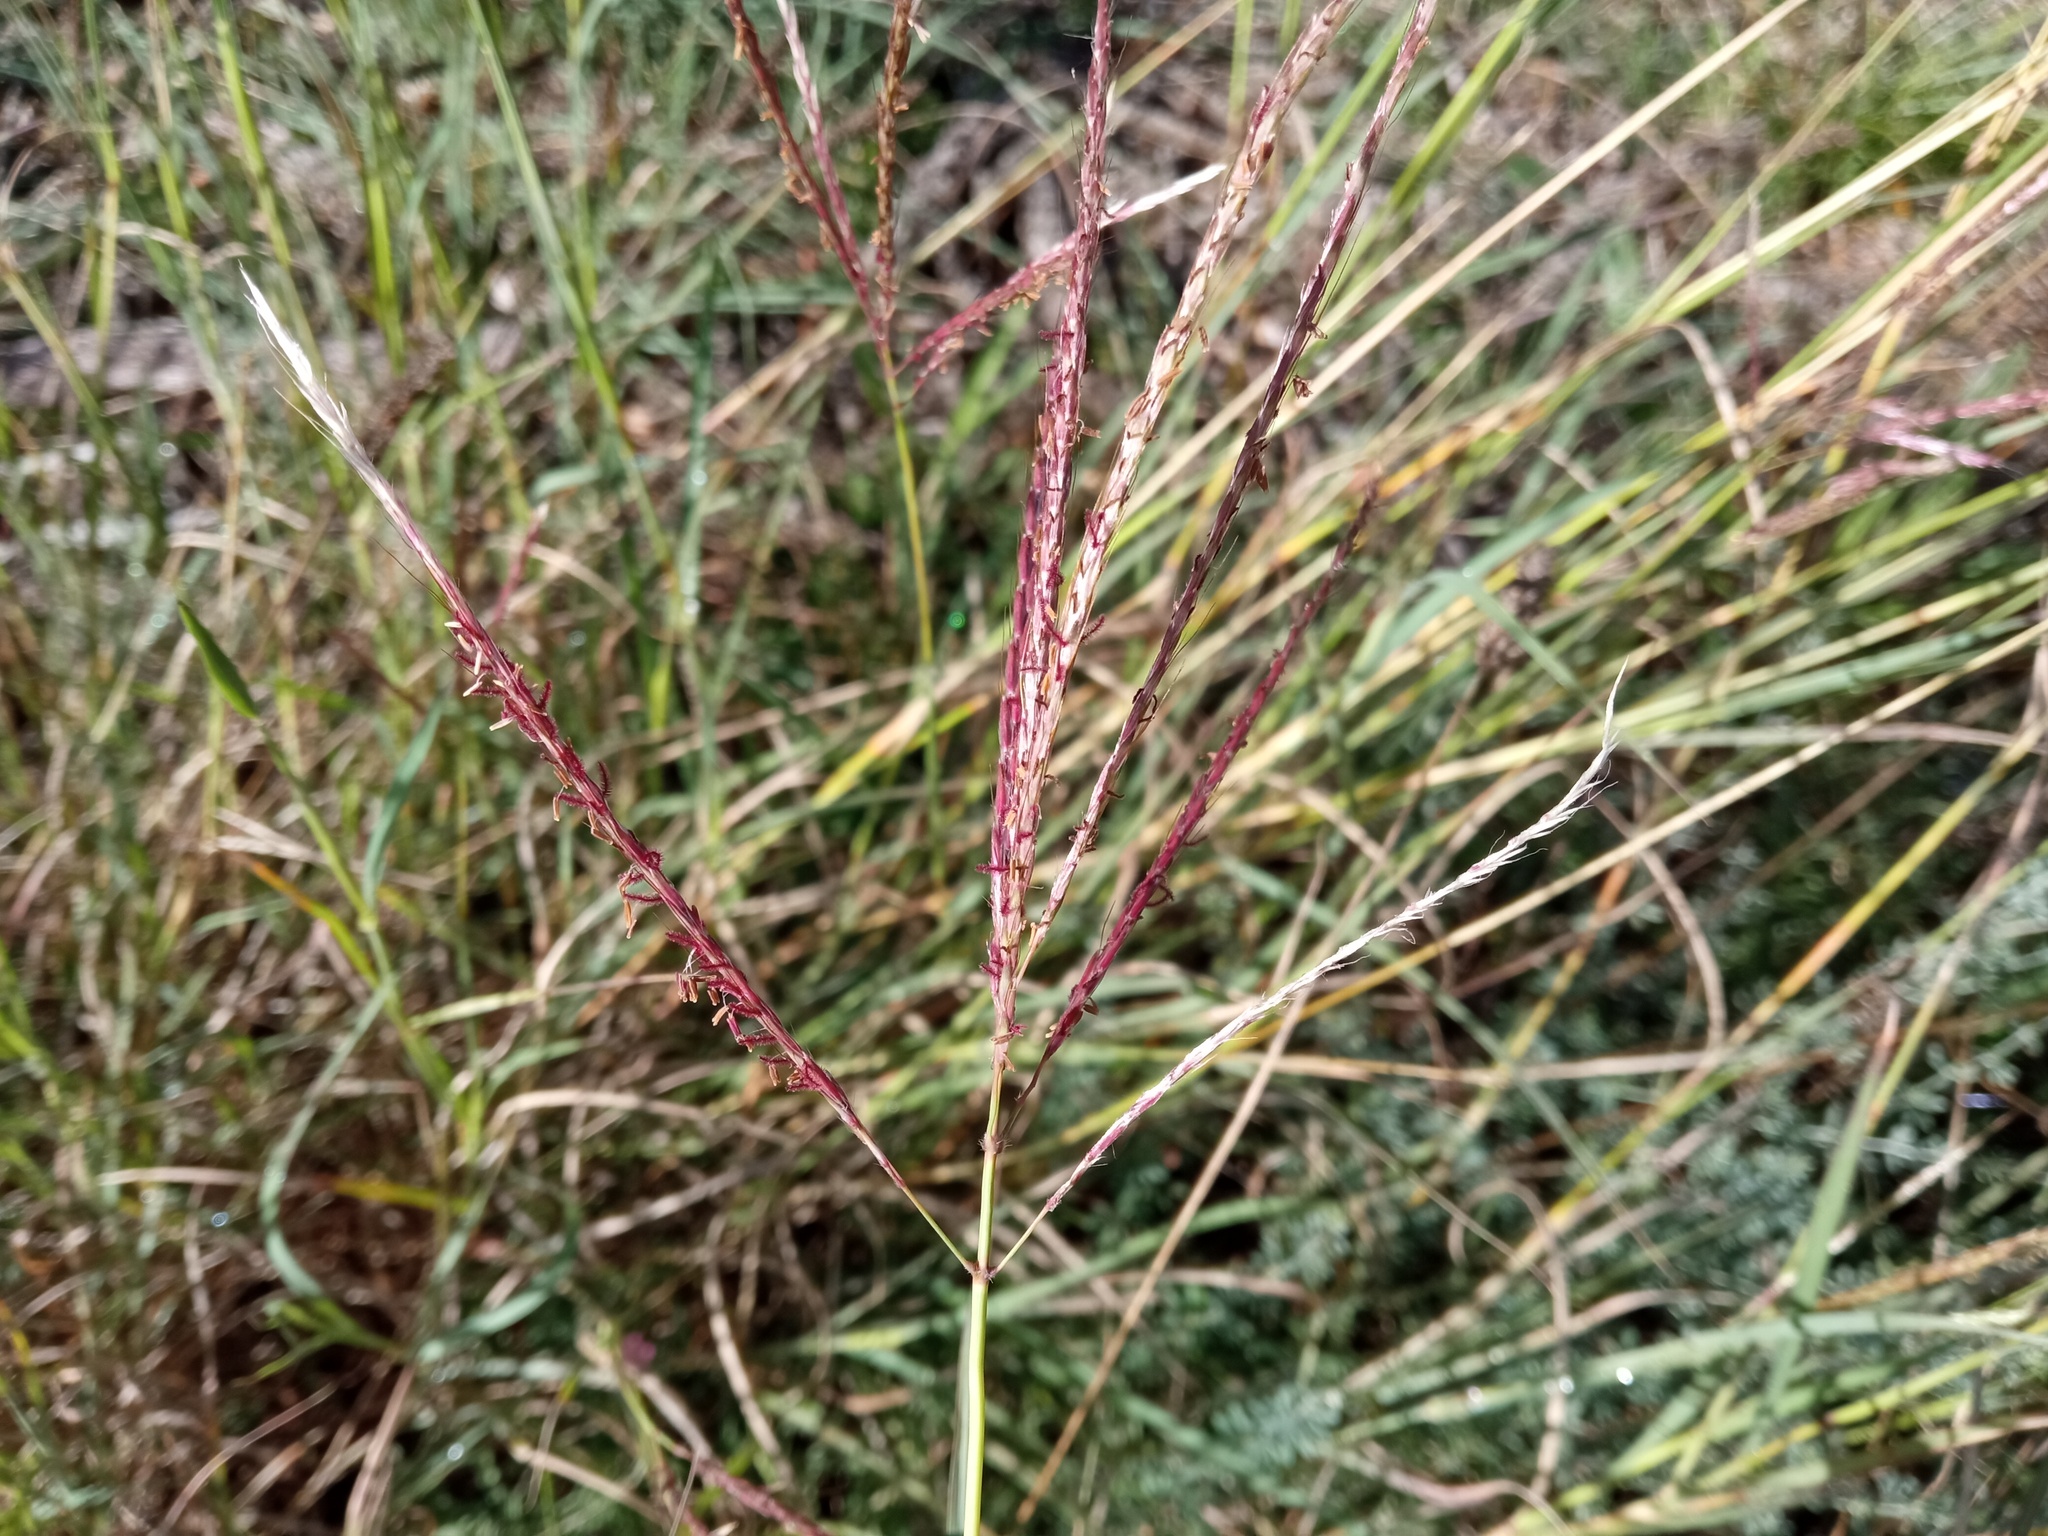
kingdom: Plantae
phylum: Tracheophyta
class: Liliopsida
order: Poales
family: Poaceae
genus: Bothriochloa
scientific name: Bothriochloa ischaemum
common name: Yellow bluestem
